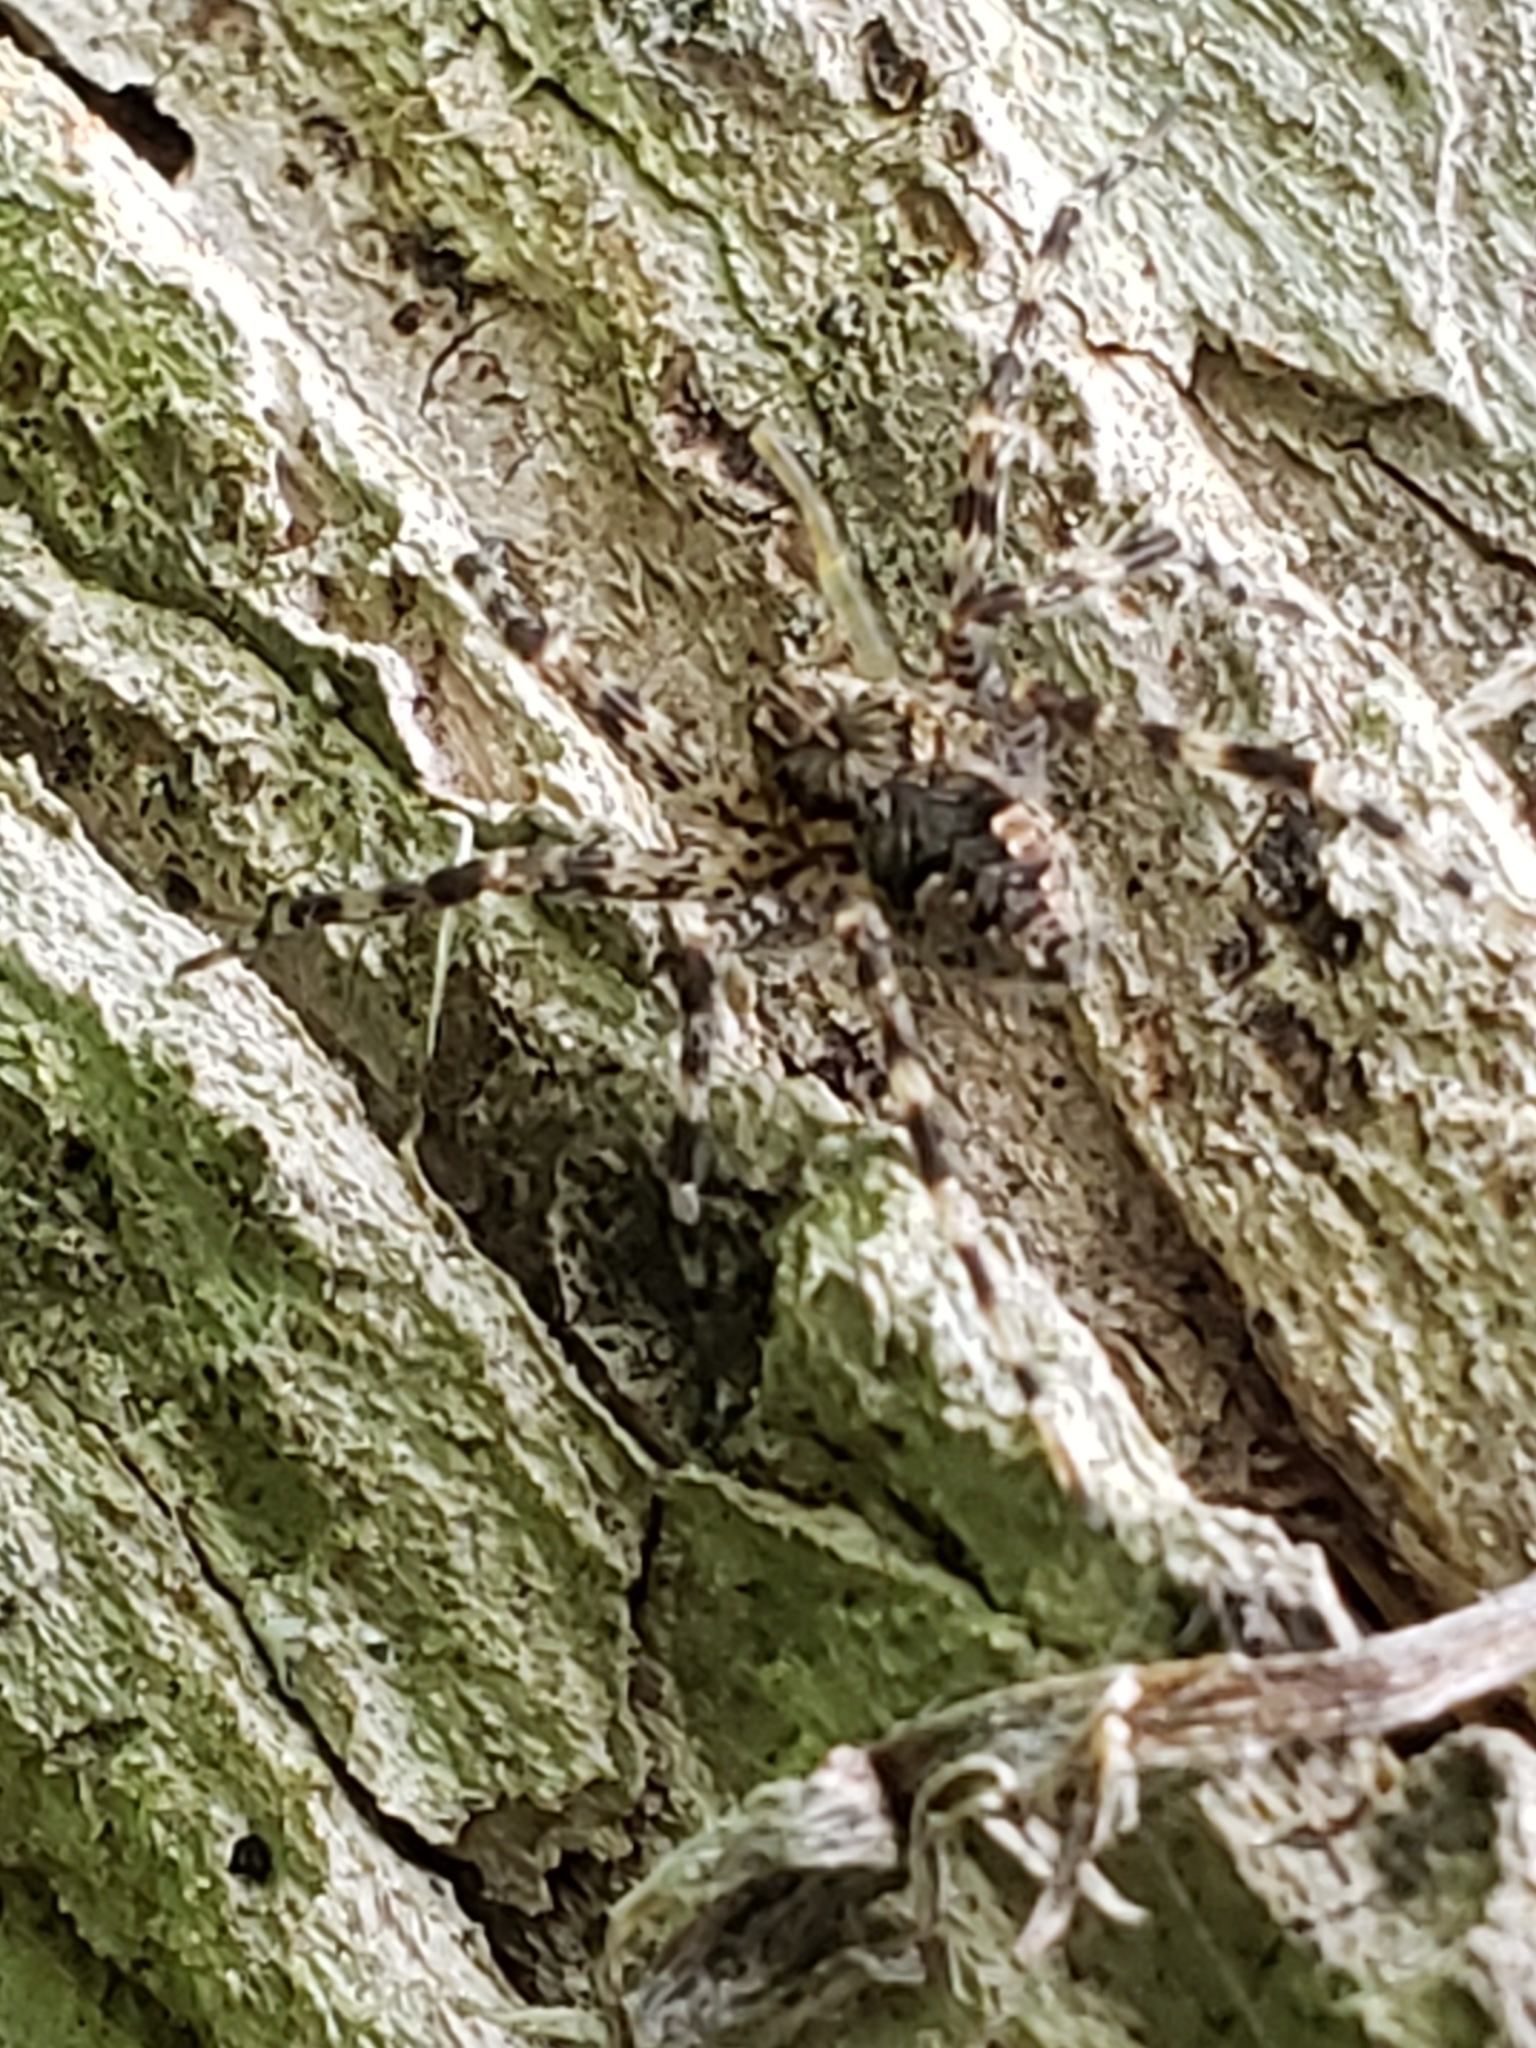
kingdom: Animalia
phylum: Arthropoda
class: Arachnida
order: Araneae
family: Pisauridae
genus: Dolomedes
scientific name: Dolomedes tenebrosus
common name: Dark fishing spider
